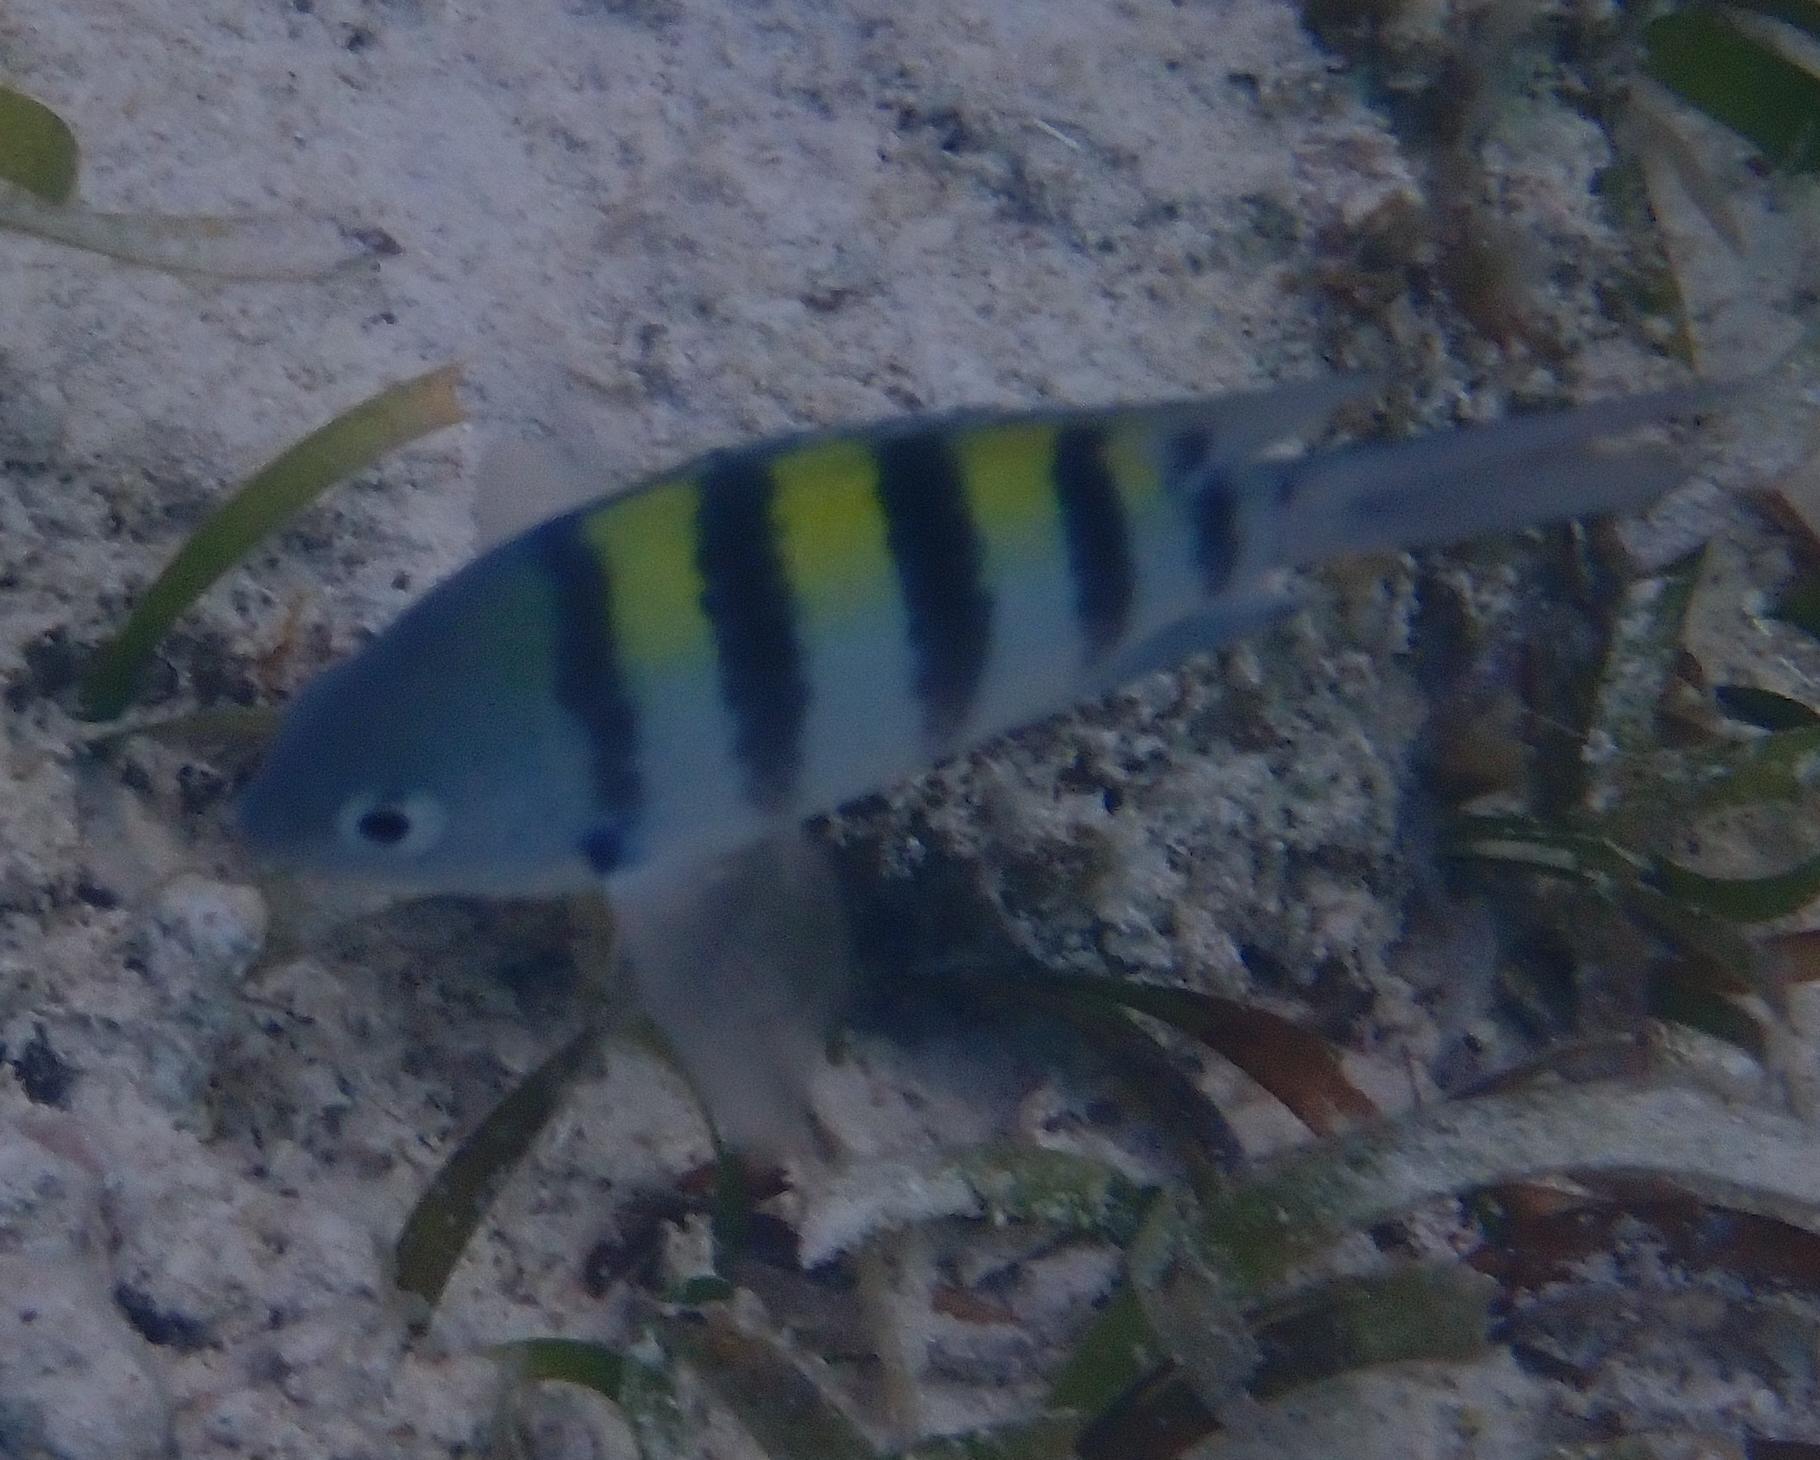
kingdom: Animalia
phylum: Chordata
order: Perciformes
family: Pomacentridae
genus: Abudefduf
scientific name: Abudefduf saxatilis
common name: Sergeant major
